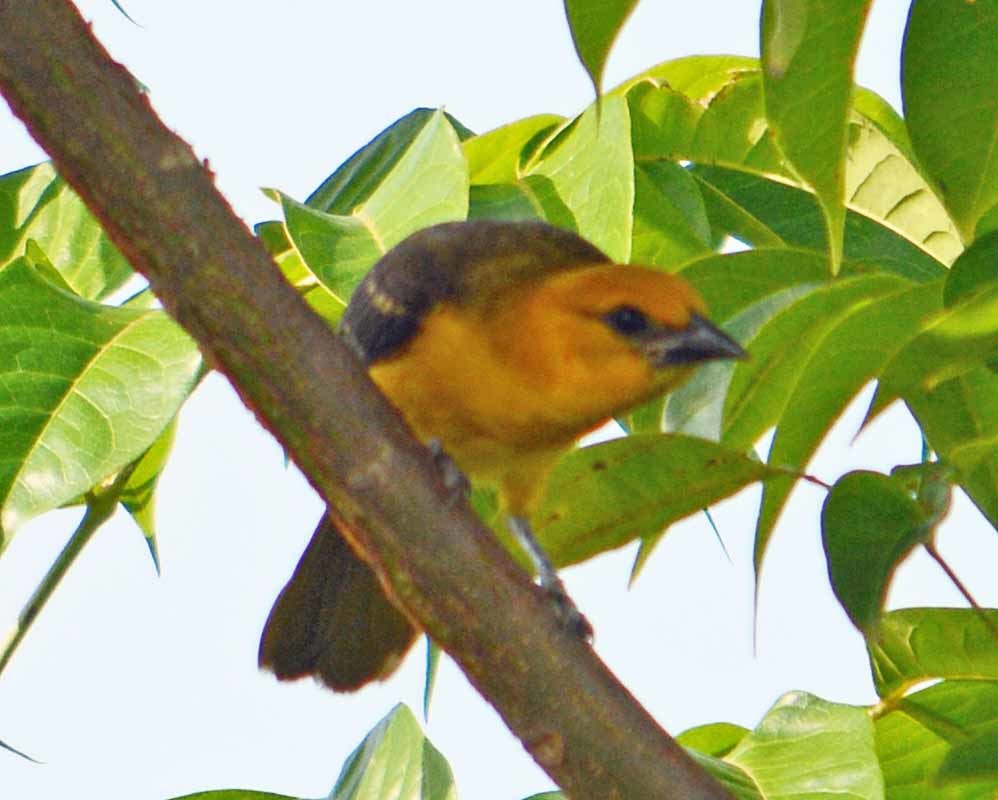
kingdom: Animalia
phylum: Chordata
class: Aves
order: Passeriformes
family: Icteridae
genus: Icterus
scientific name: Icterus gularis
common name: Altamira oriole
